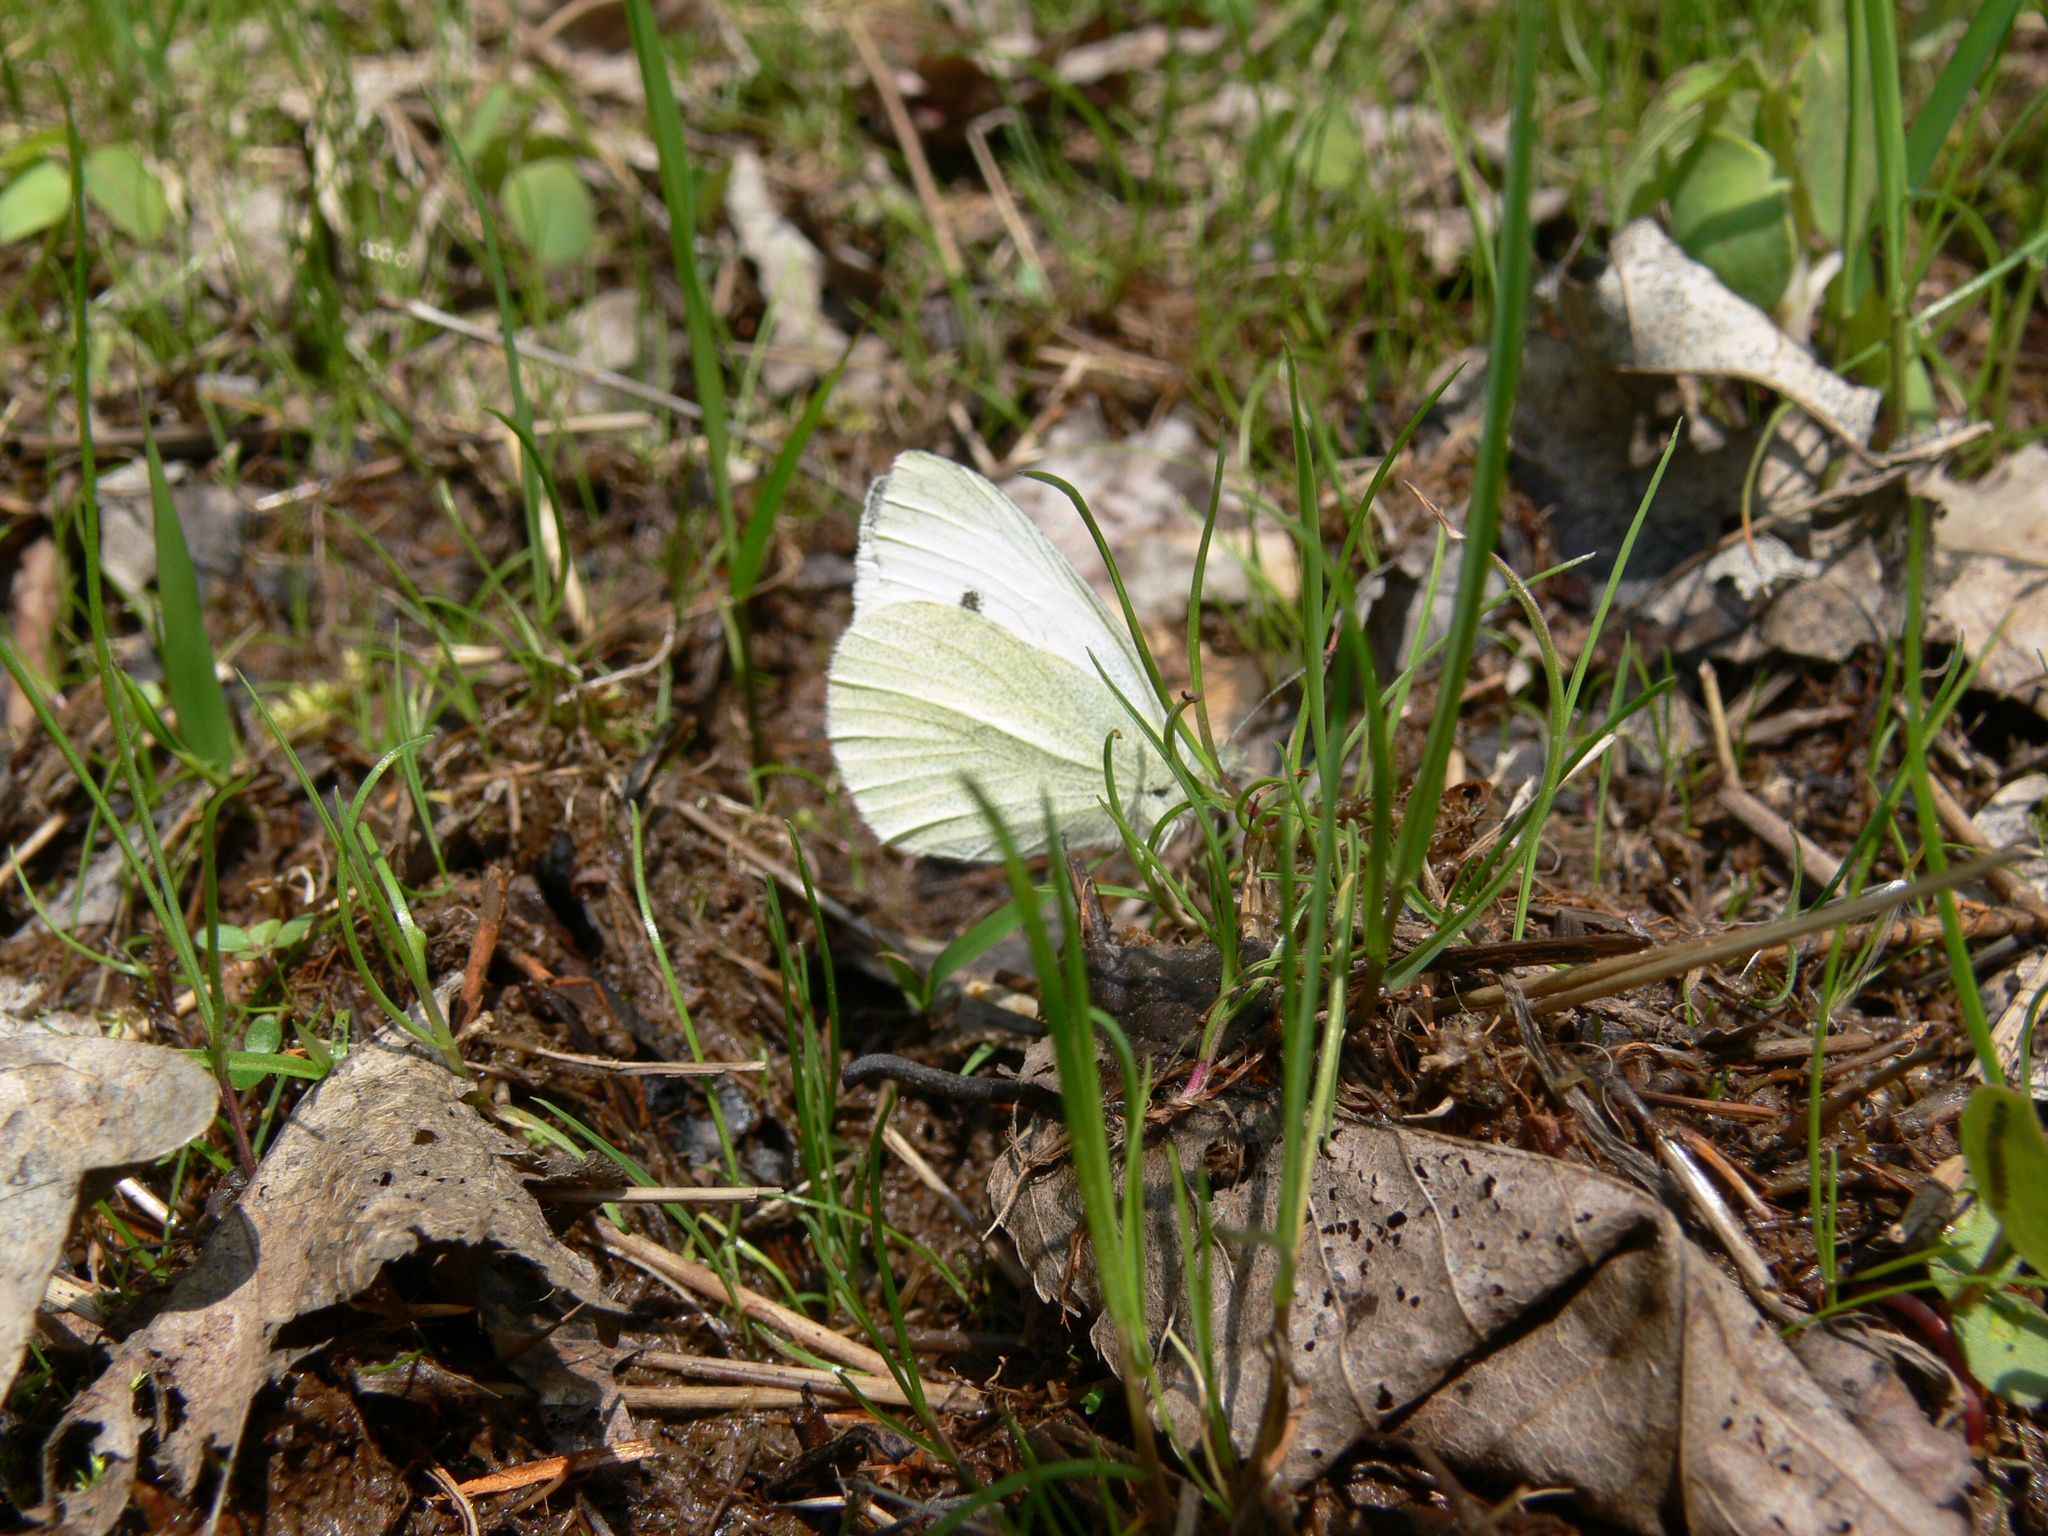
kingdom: Animalia
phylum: Arthropoda
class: Insecta
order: Lepidoptera
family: Pieridae
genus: Pieris
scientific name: Pieris rapae
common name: Small white
